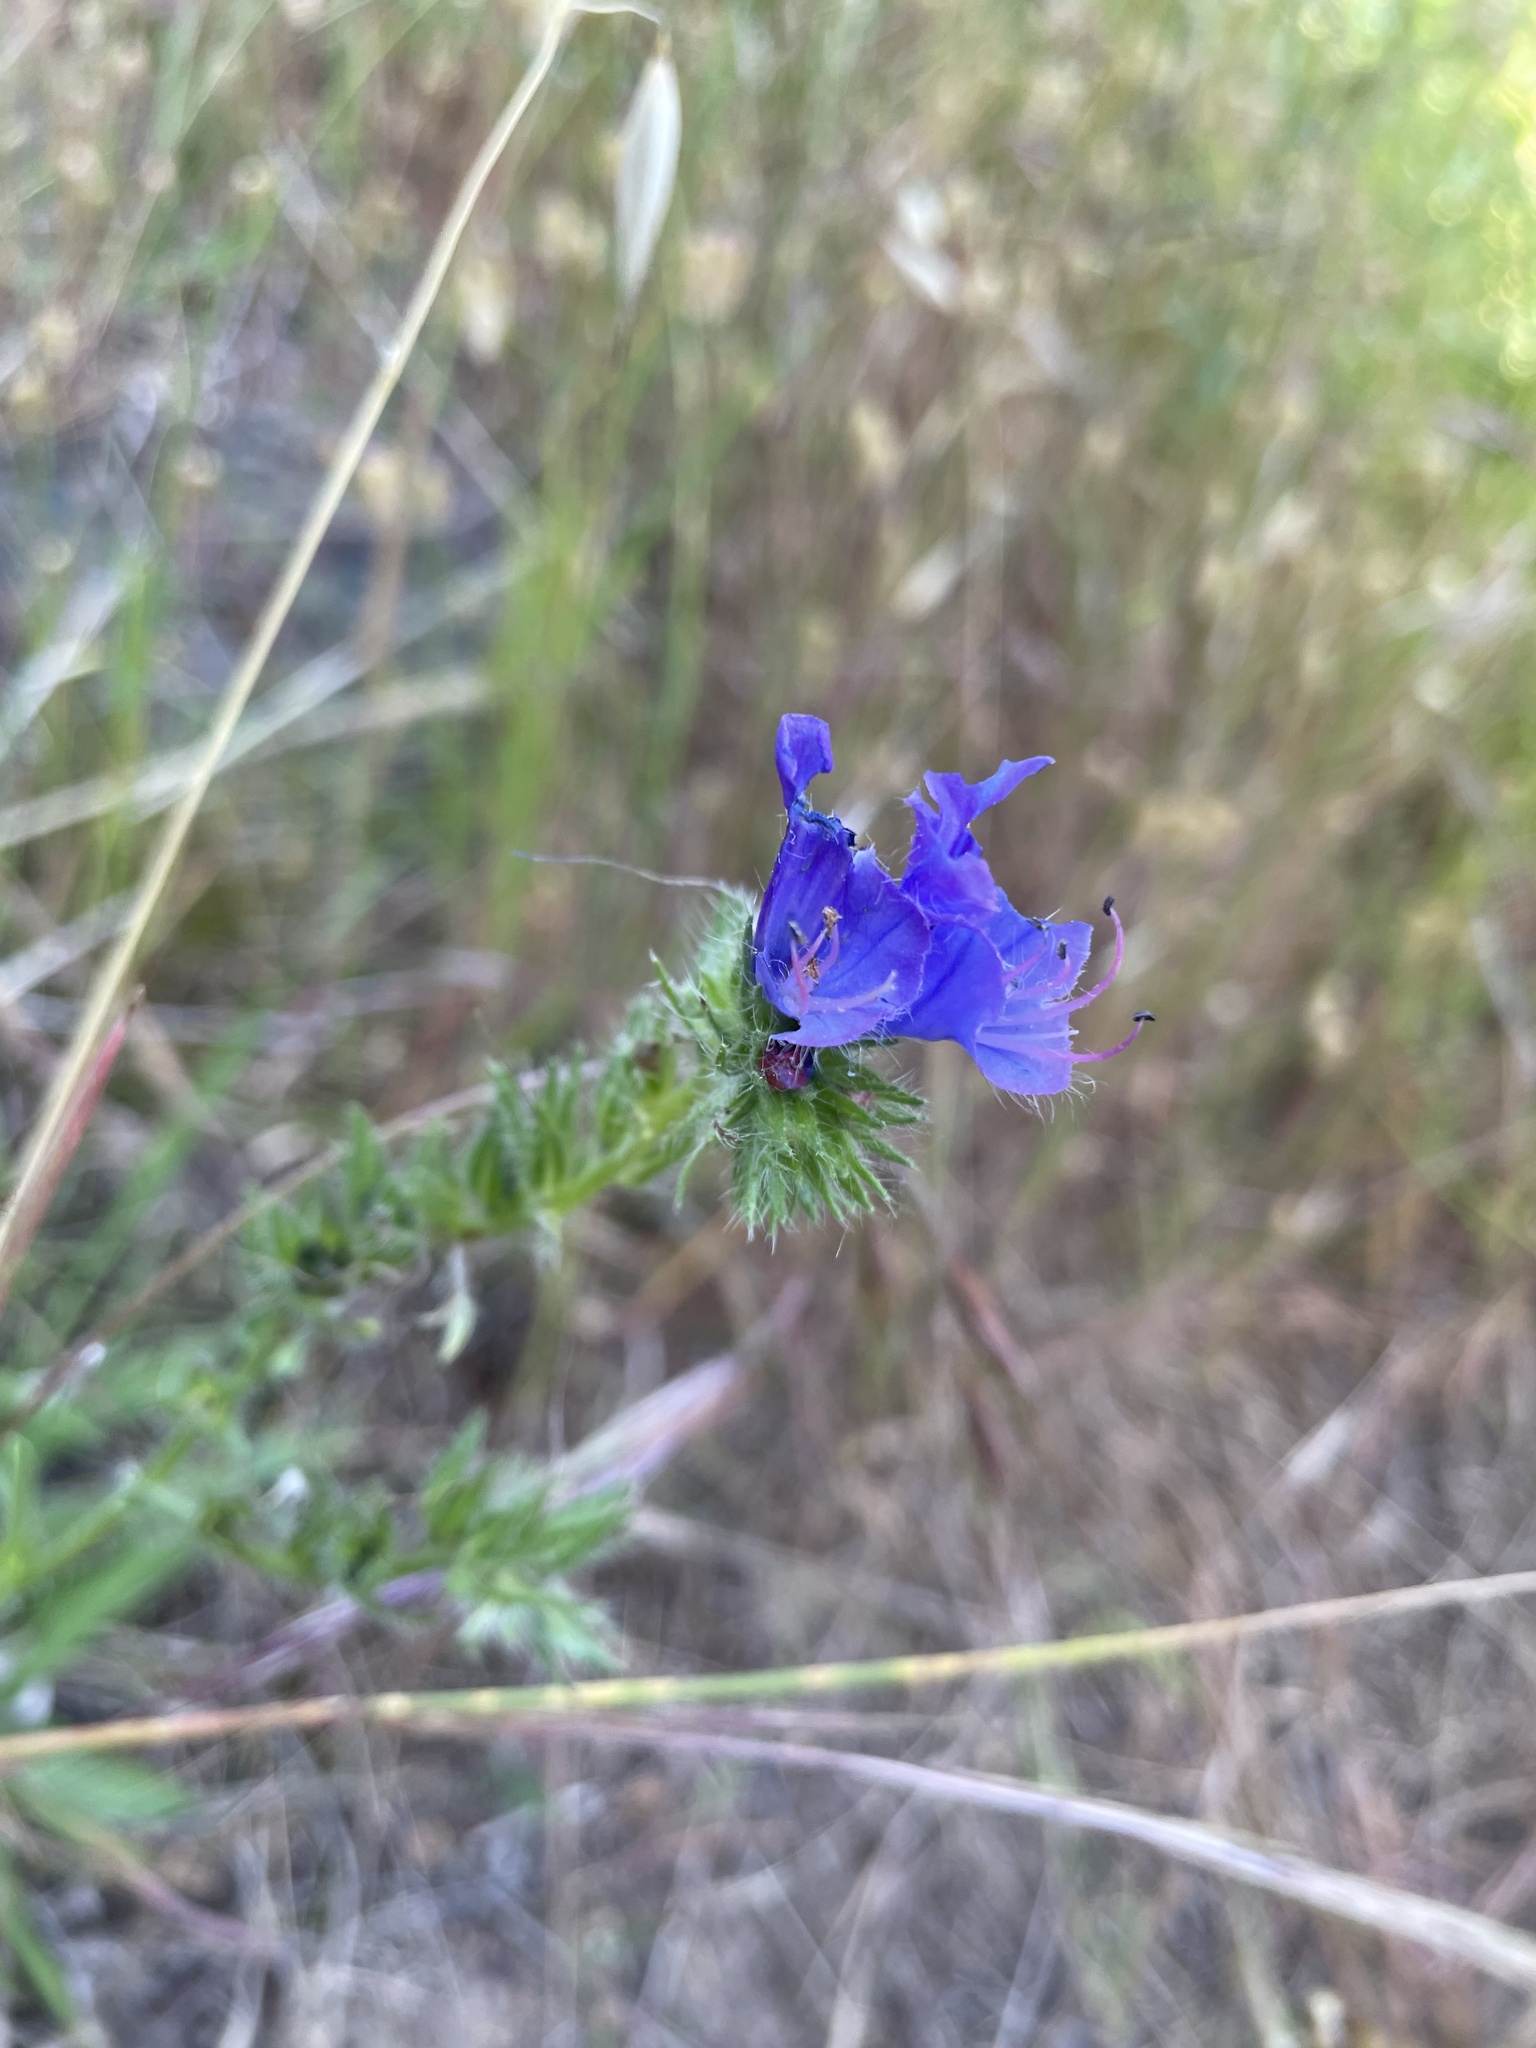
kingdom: Plantae
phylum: Tracheophyta
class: Magnoliopsida
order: Boraginales
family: Boraginaceae
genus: Echium
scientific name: Echium plantagineum
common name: Purple viper's-bugloss
